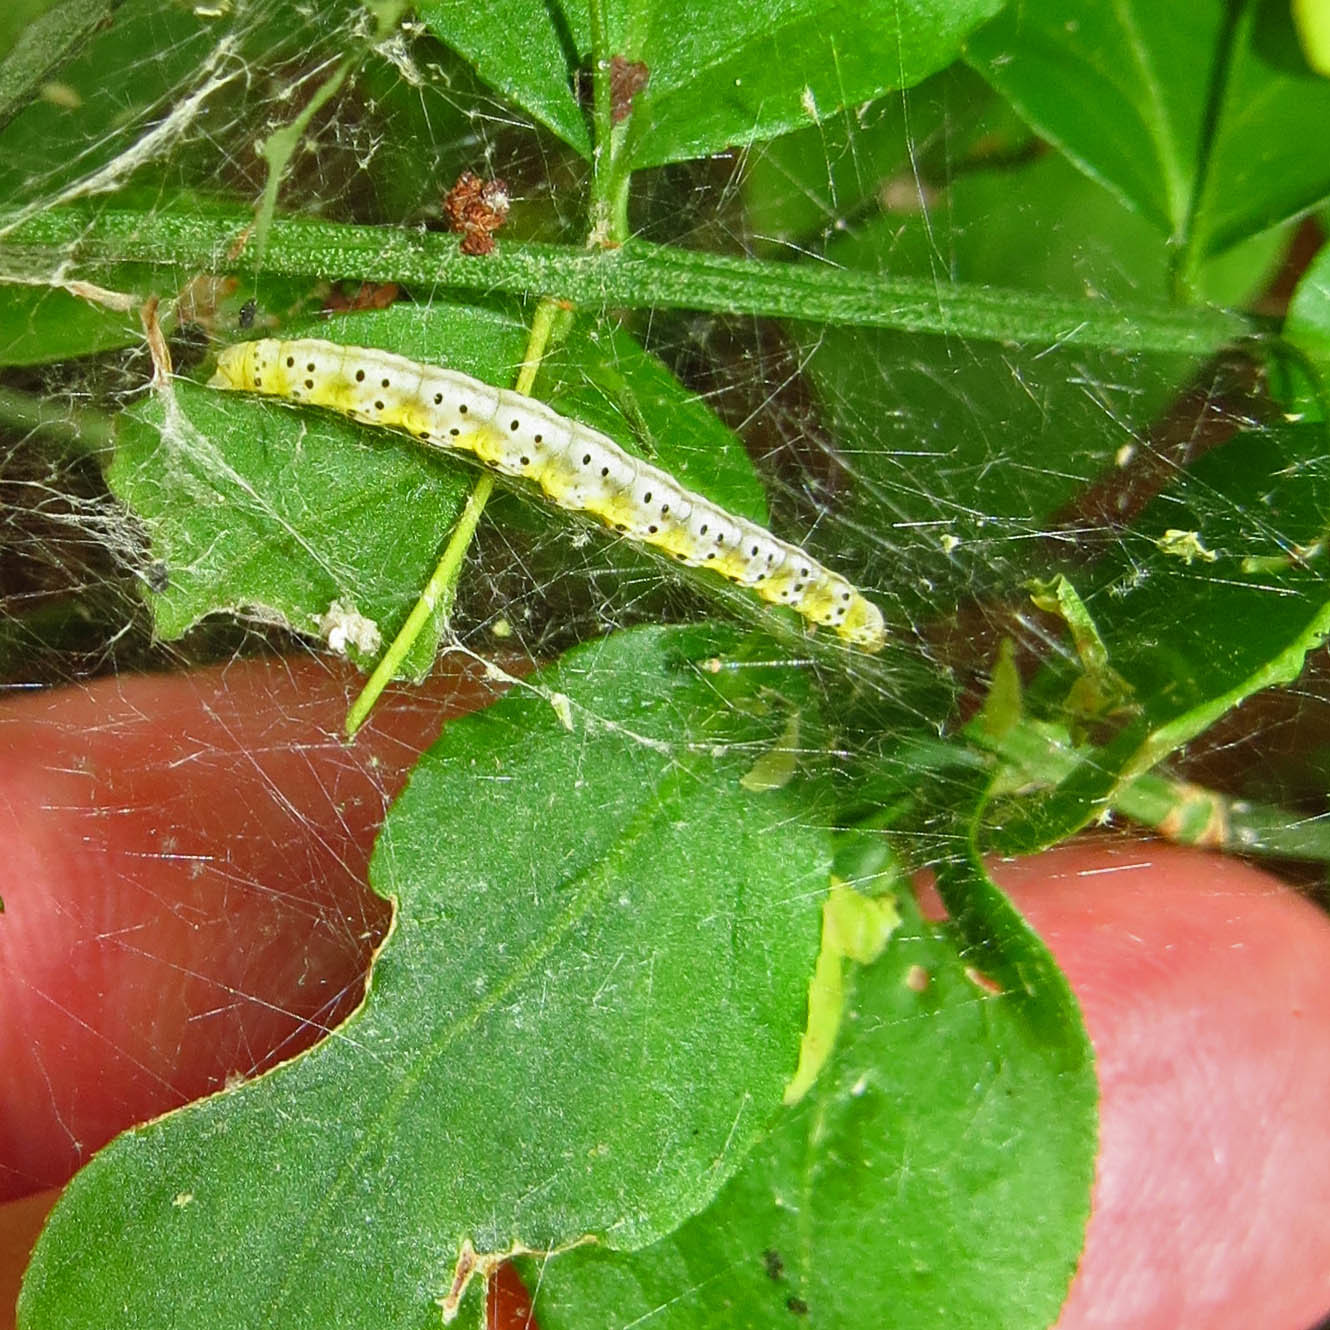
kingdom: Animalia
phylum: Arthropoda
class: Insecta
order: Lepidoptera
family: Yponomeutidae
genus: Yponomeuta
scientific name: Yponomeuta cagnagellus
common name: Spindle ermine
